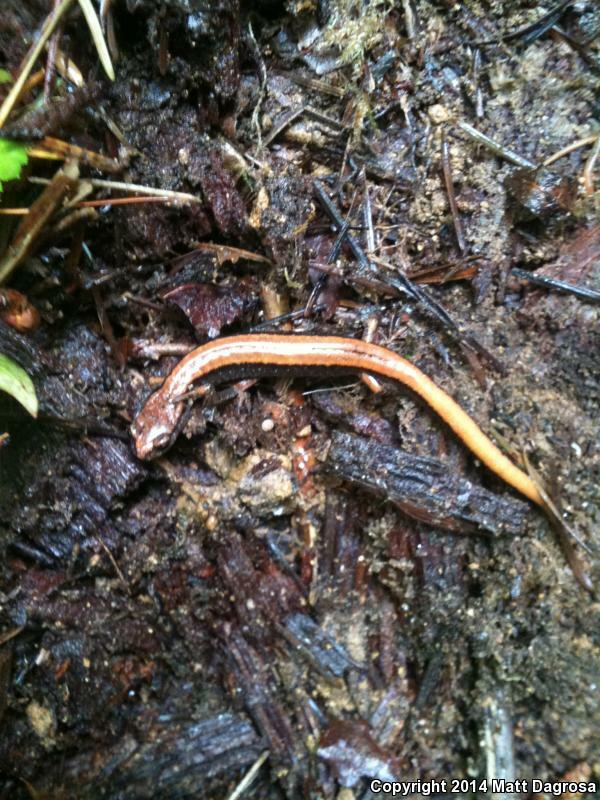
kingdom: Animalia
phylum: Chordata
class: Amphibia
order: Caudata
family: Plethodontidae
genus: Plethodon
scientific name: Plethodon vehiculum
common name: Western red-backed salamander
